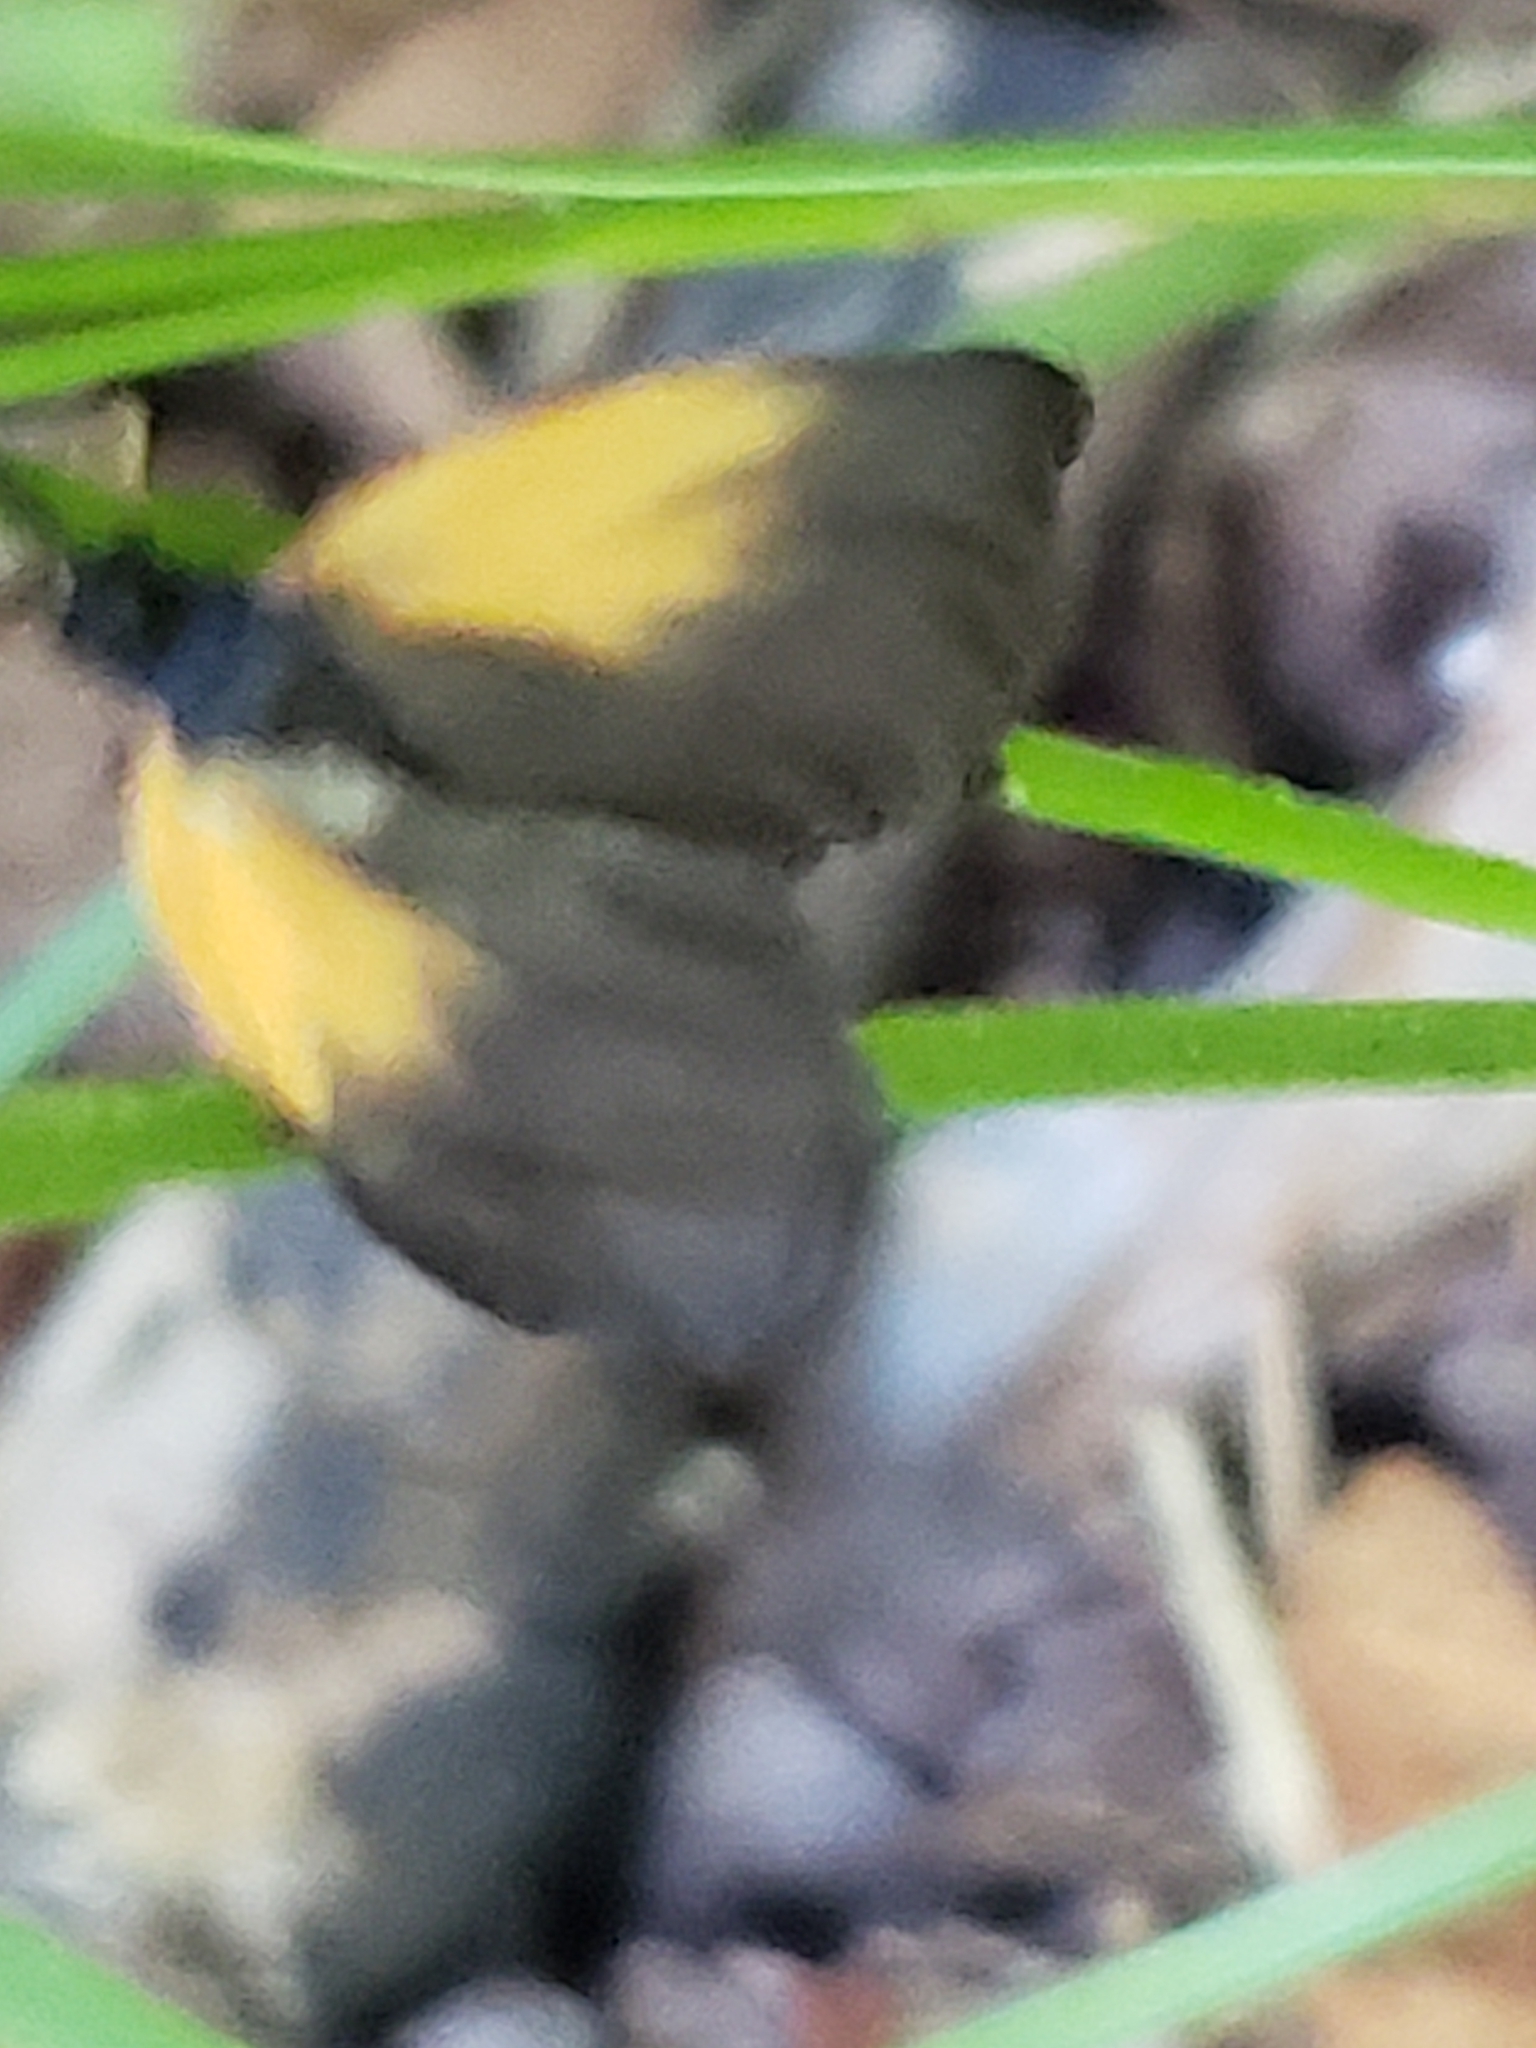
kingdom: Animalia
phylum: Arthropoda
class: Insecta
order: Lepidoptera
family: Zygaenidae
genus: Malthaca
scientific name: Malthaca dimidiata
